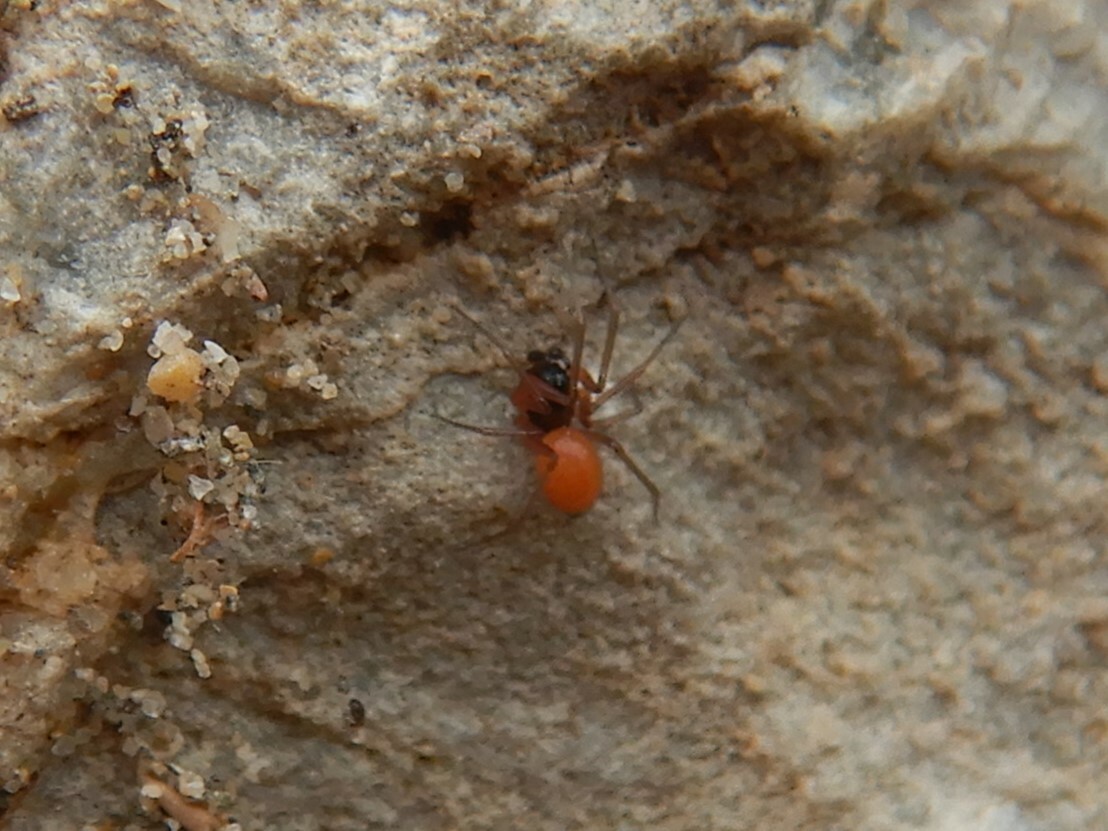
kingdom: Animalia
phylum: Arthropoda
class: Arachnida
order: Araneae
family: Linyphiidae
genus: Ostearius
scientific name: Ostearius melanopygius
